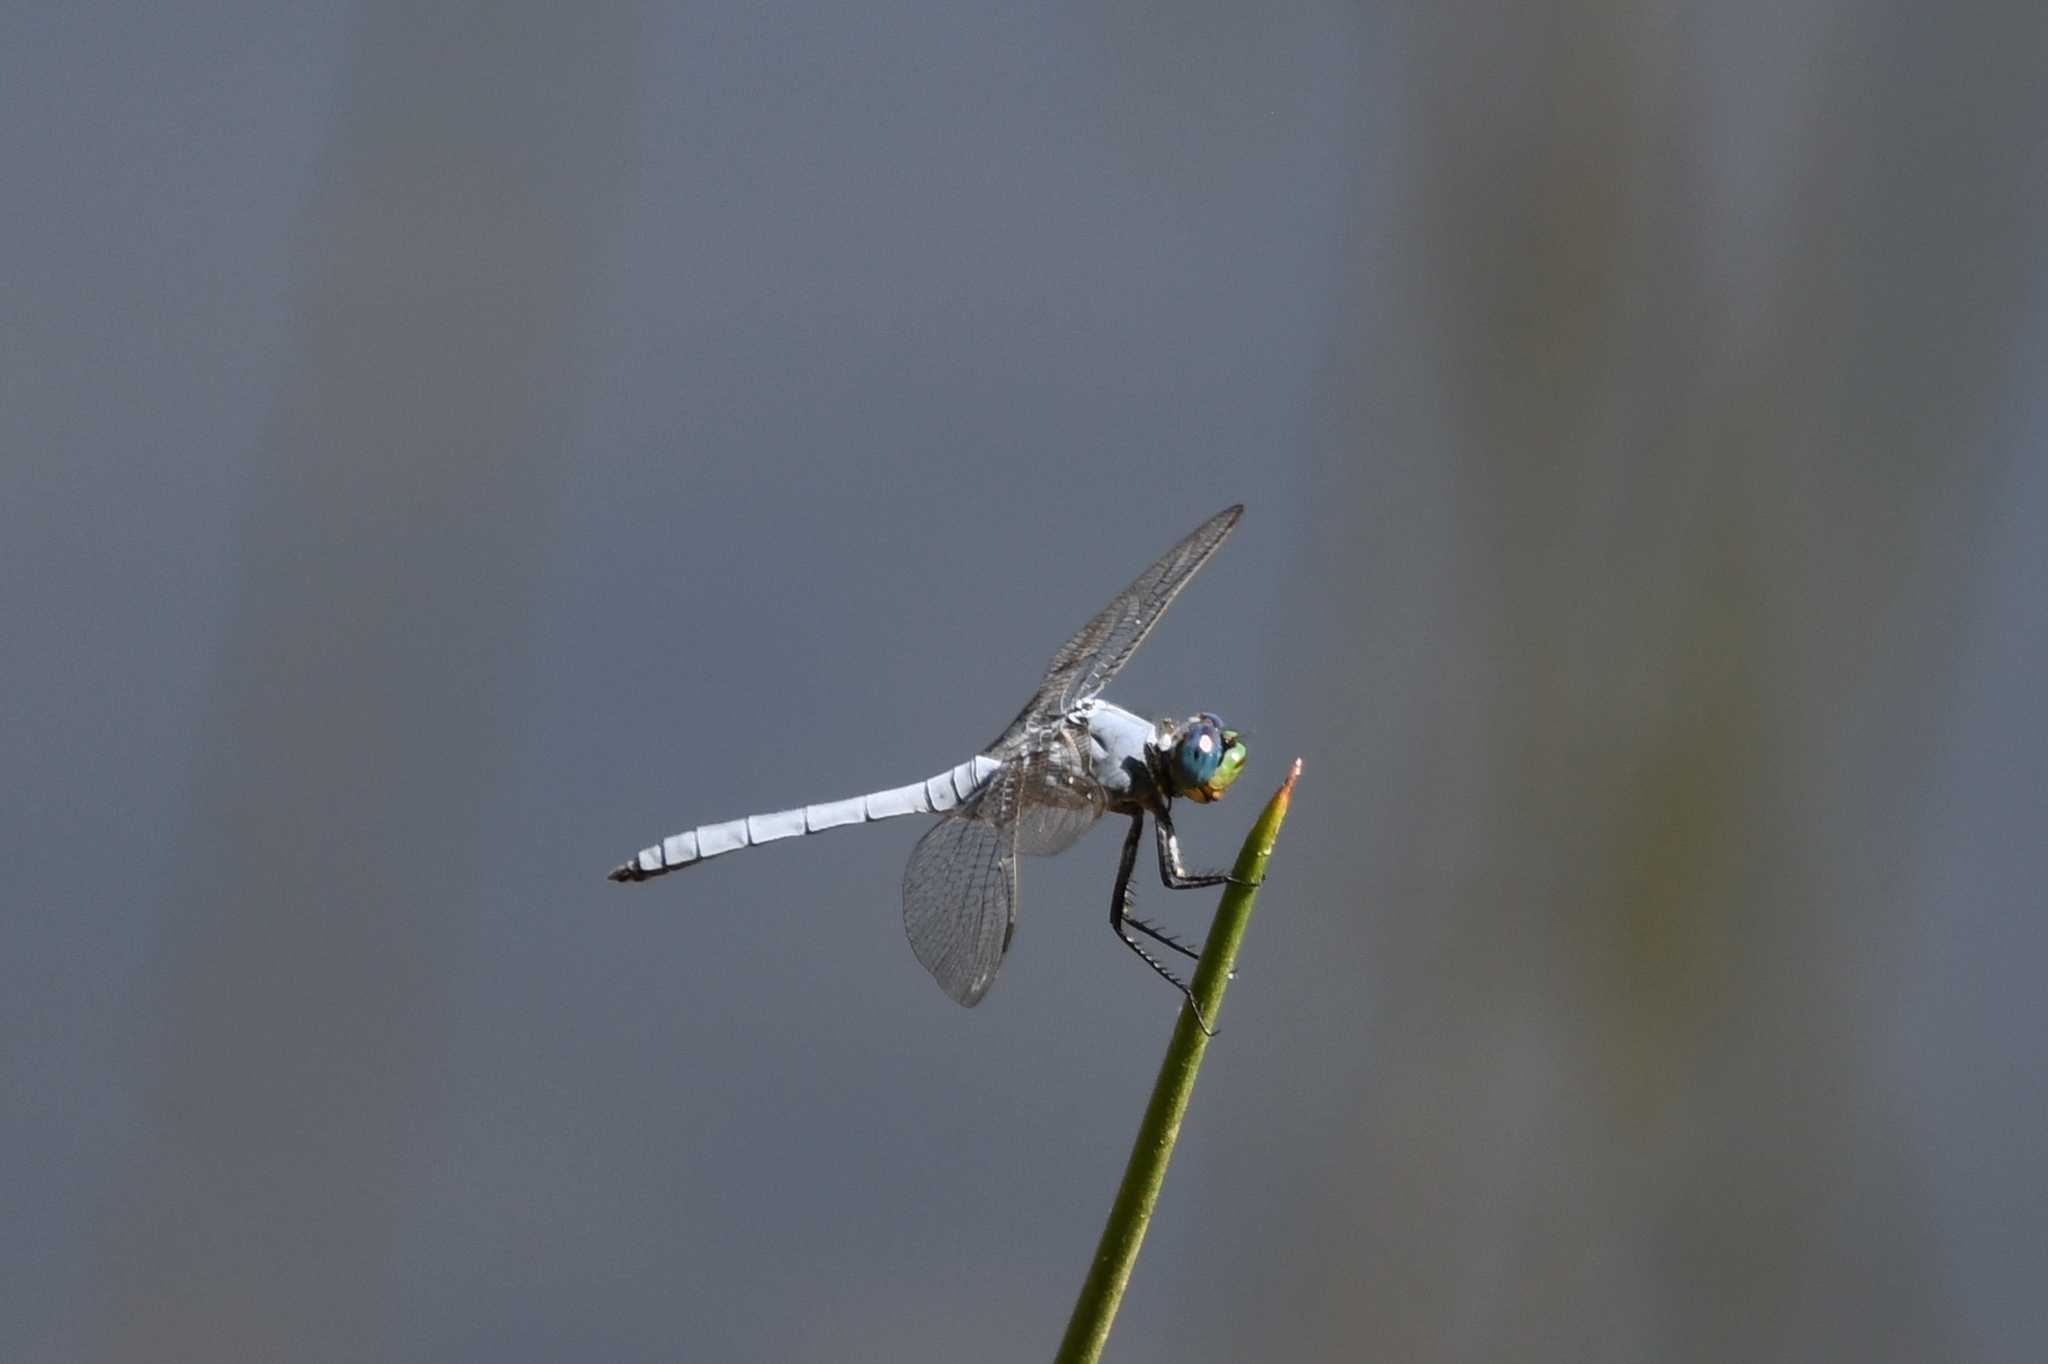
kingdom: Animalia
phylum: Arthropoda
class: Insecta
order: Odonata
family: Libellulidae
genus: Erythemis
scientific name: Erythemis collocata
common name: Western pondhawk
